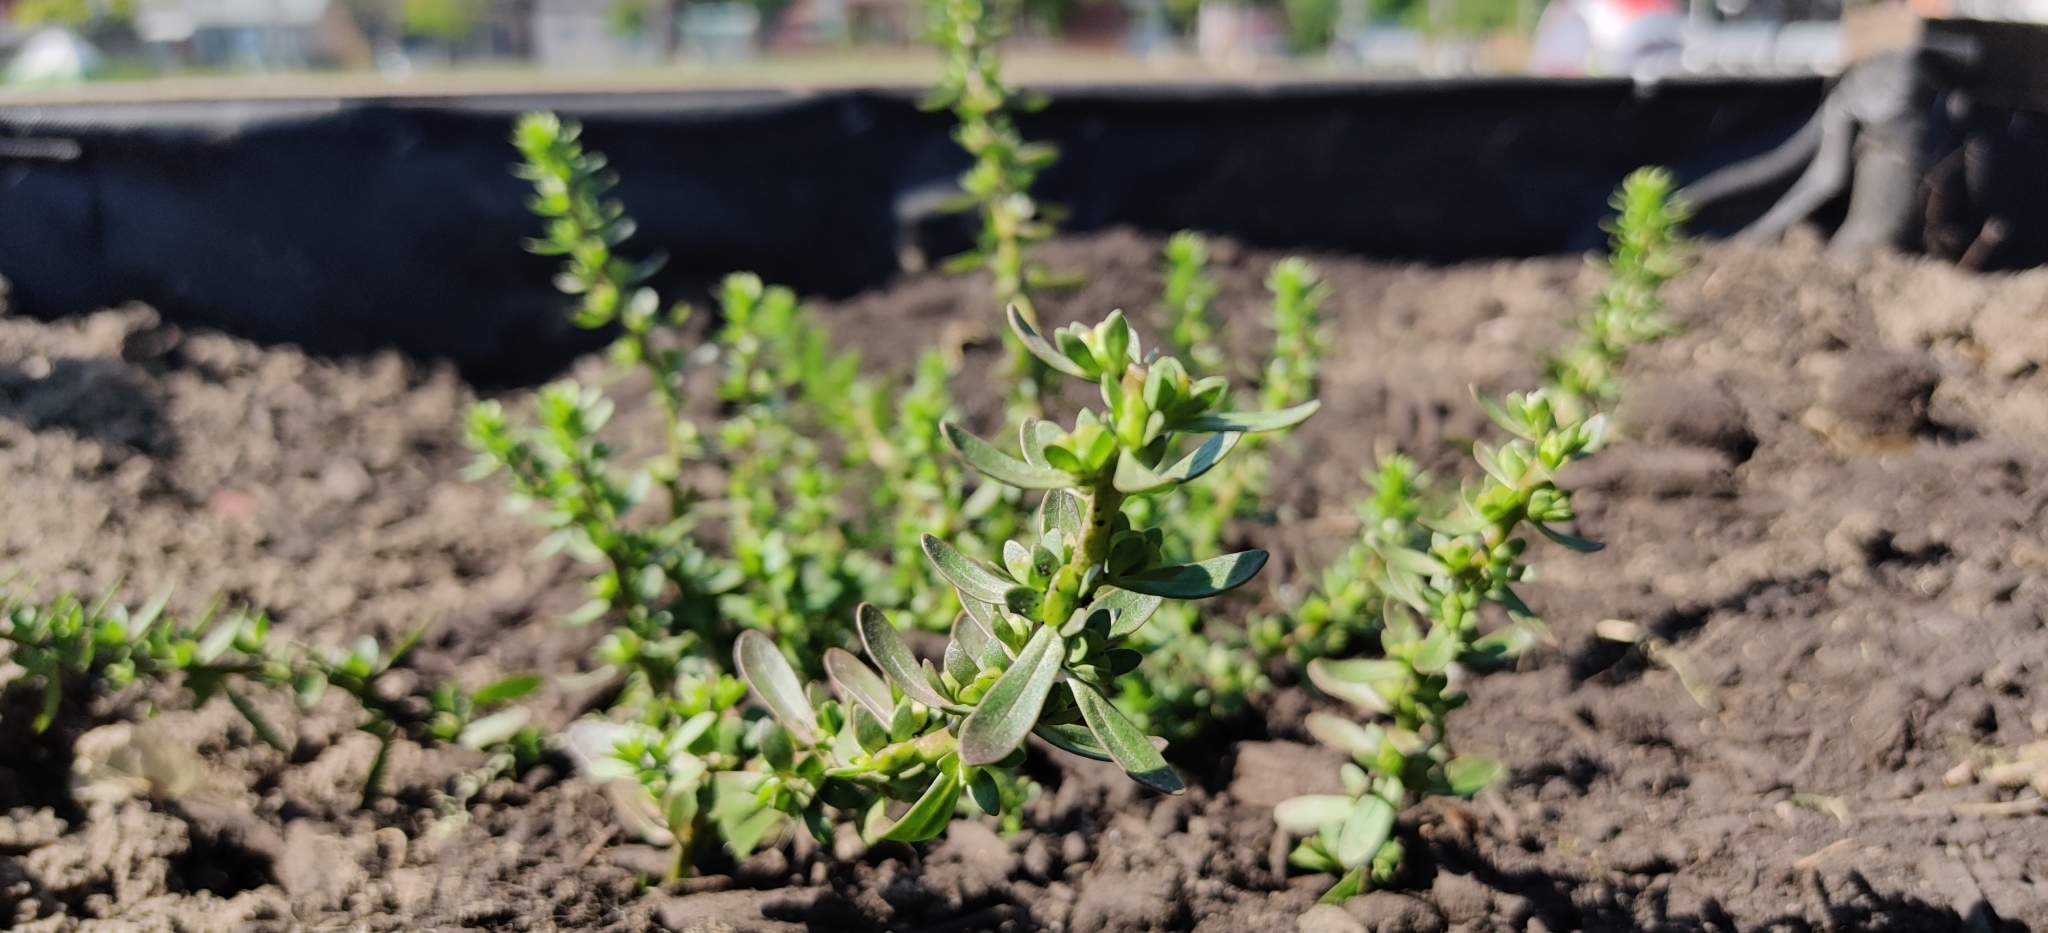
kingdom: Plantae
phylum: Tracheophyta
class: Magnoliopsida
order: Lamiales
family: Plantaginaceae
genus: Veronica
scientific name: Veronica peregrina
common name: Neckweed
